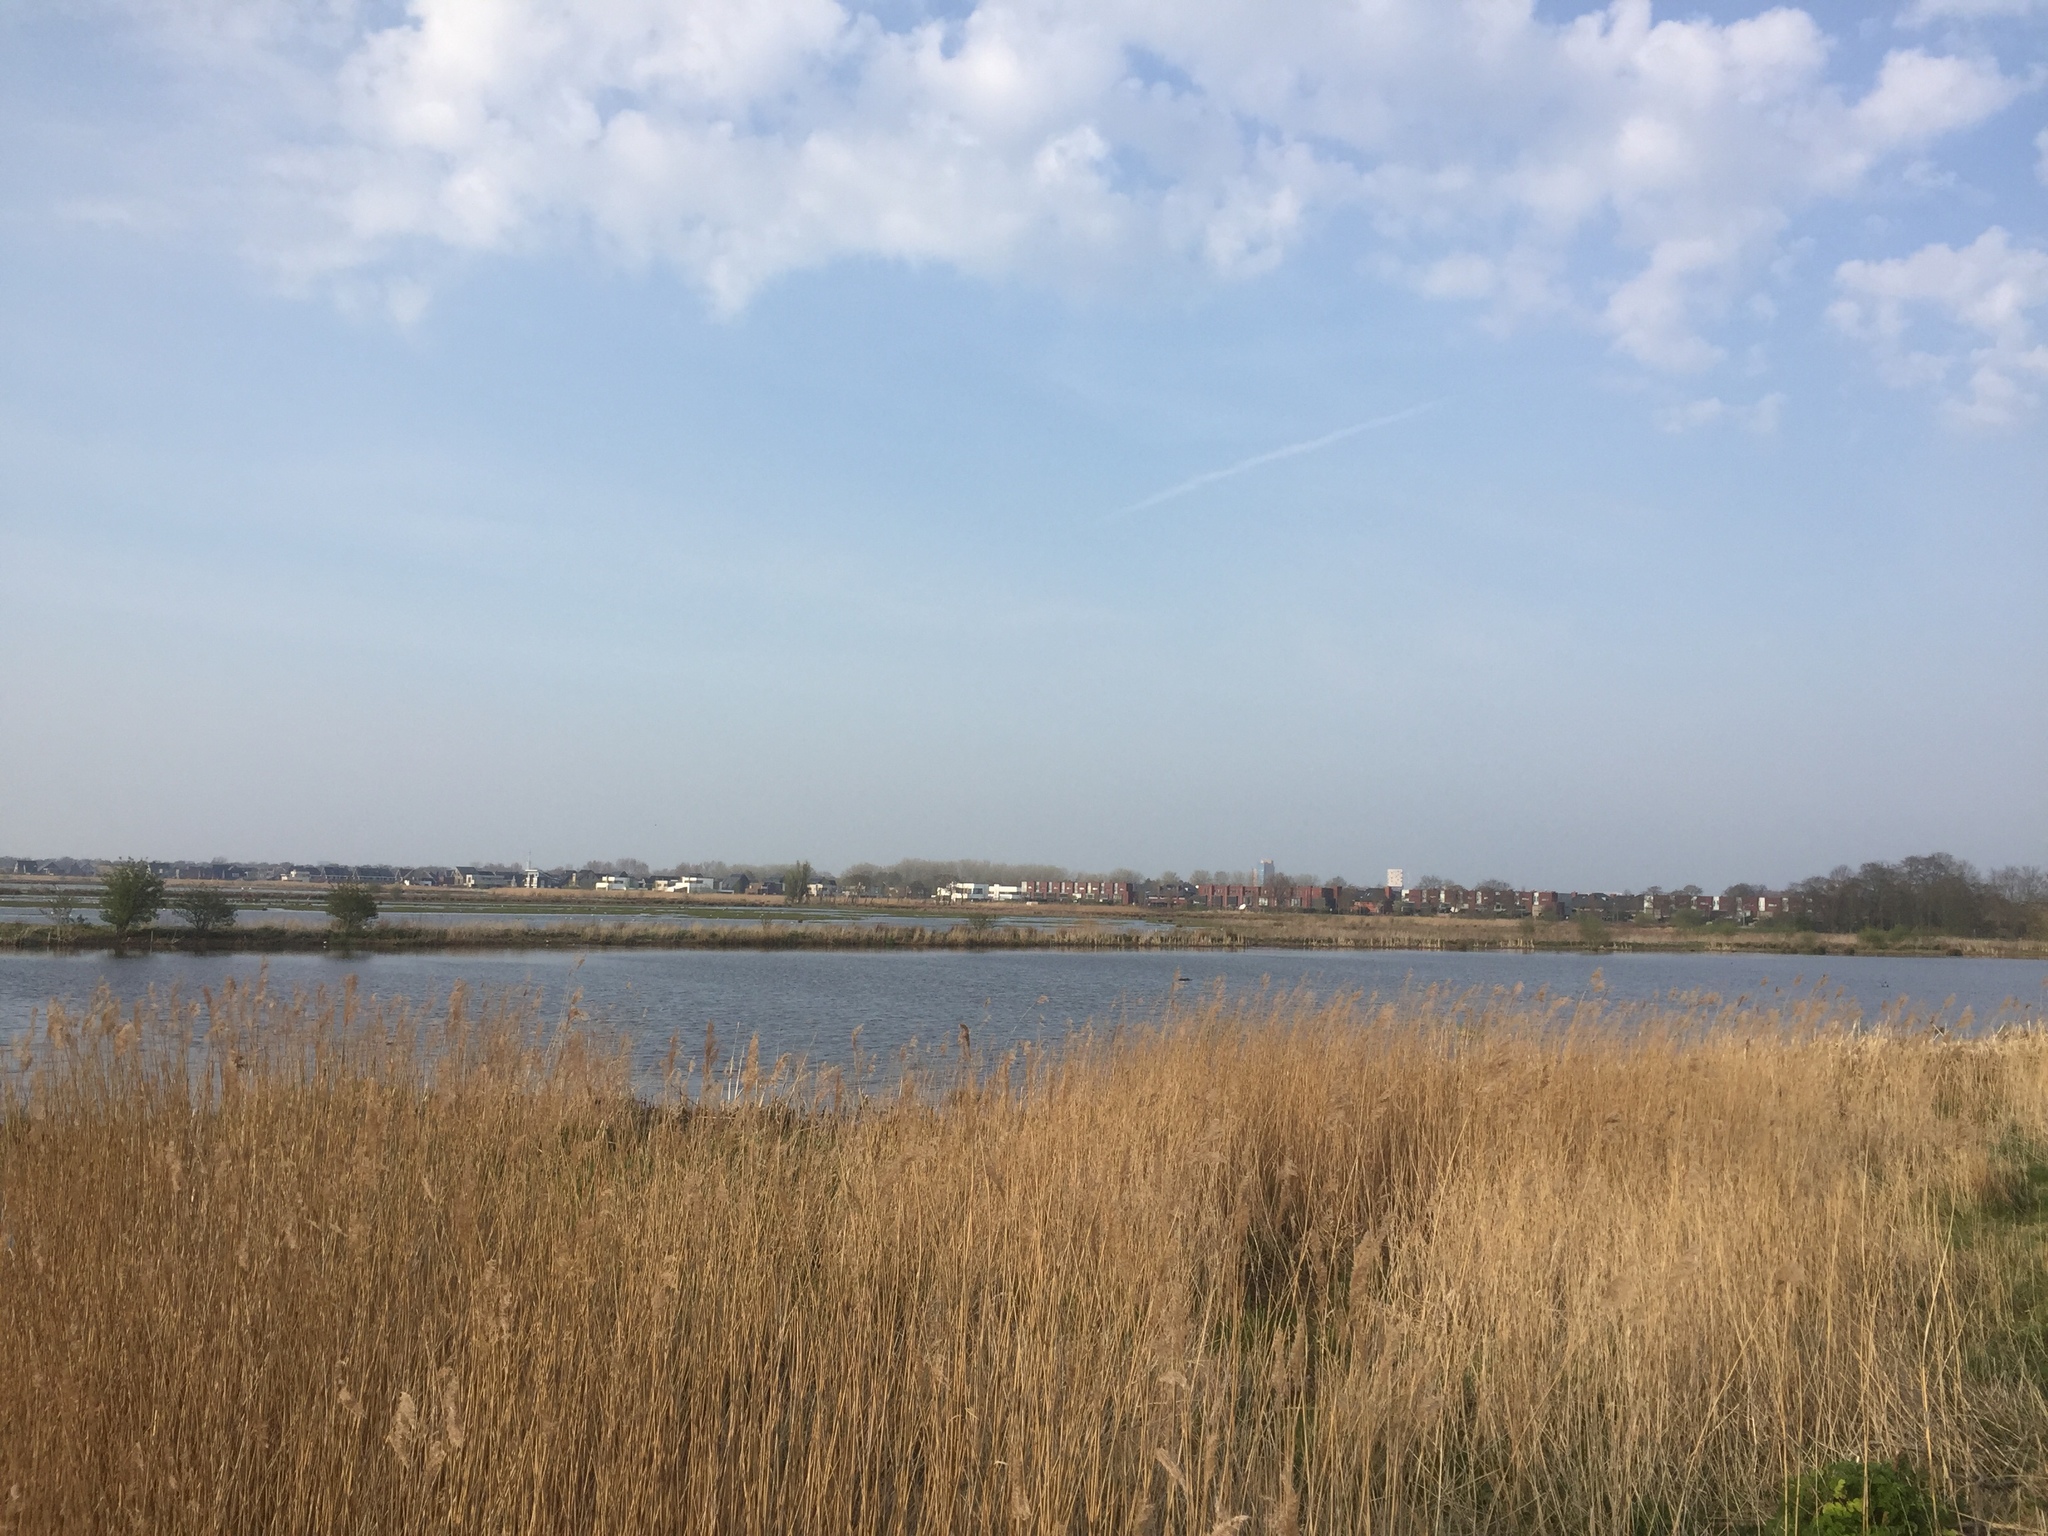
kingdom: Plantae
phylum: Tracheophyta
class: Liliopsida
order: Poales
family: Poaceae
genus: Phragmites
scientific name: Phragmites australis
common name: Common reed
